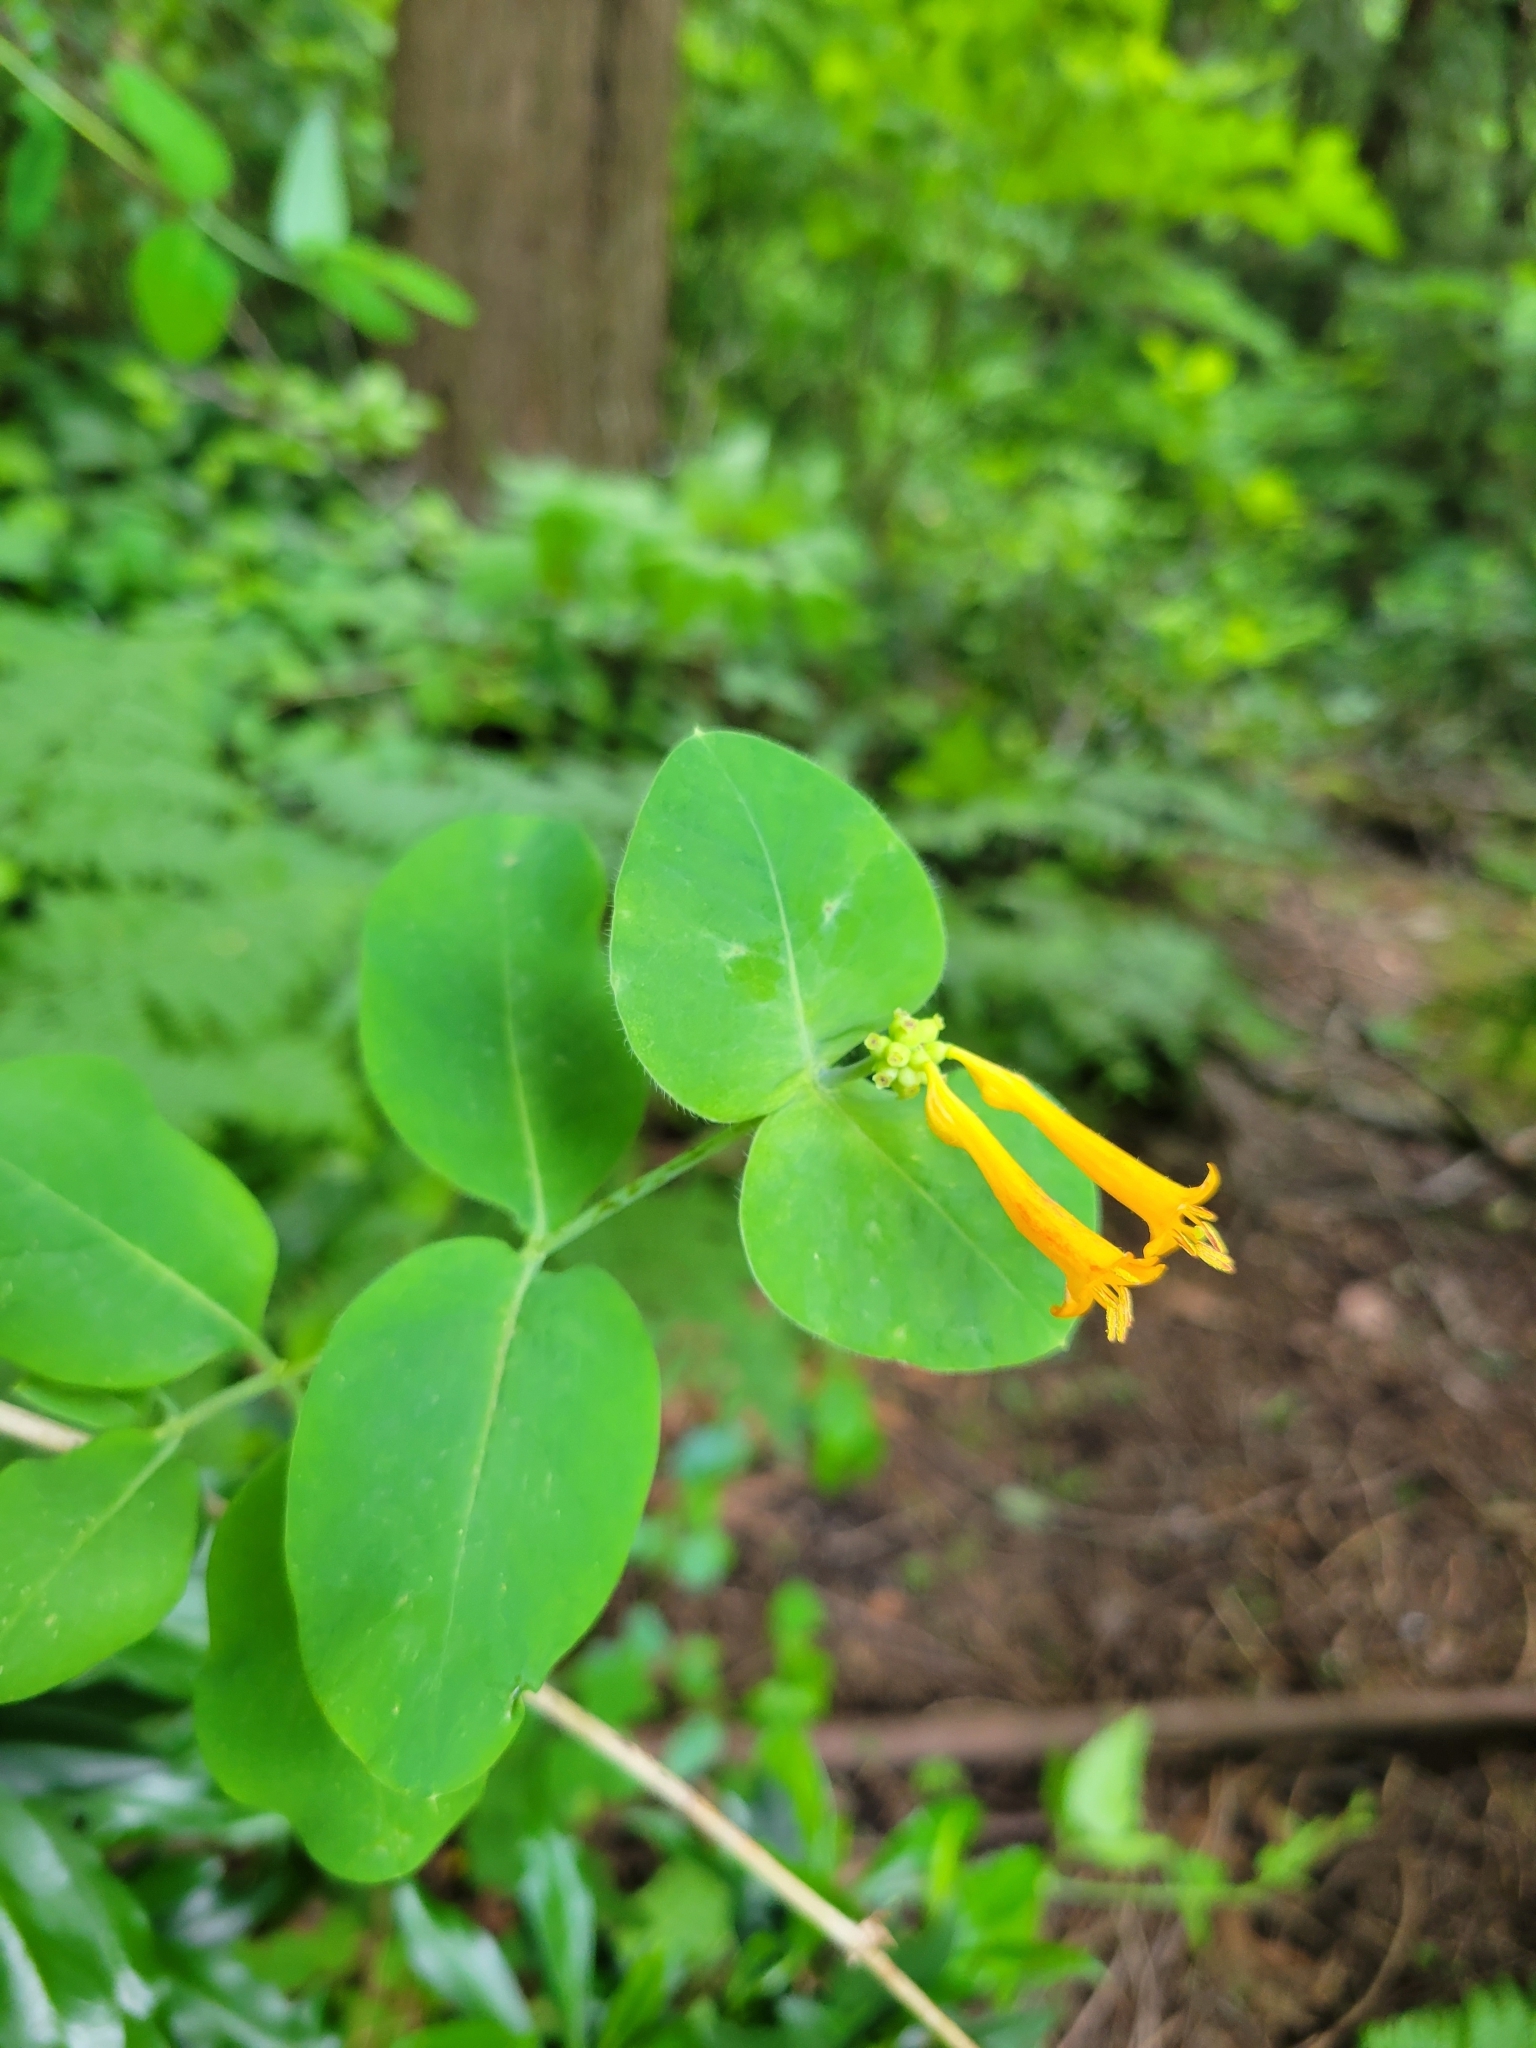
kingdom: Plantae
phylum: Tracheophyta
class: Magnoliopsida
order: Dipsacales
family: Caprifoliaceae
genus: Lonicera
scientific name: Lonicera ciliosa
